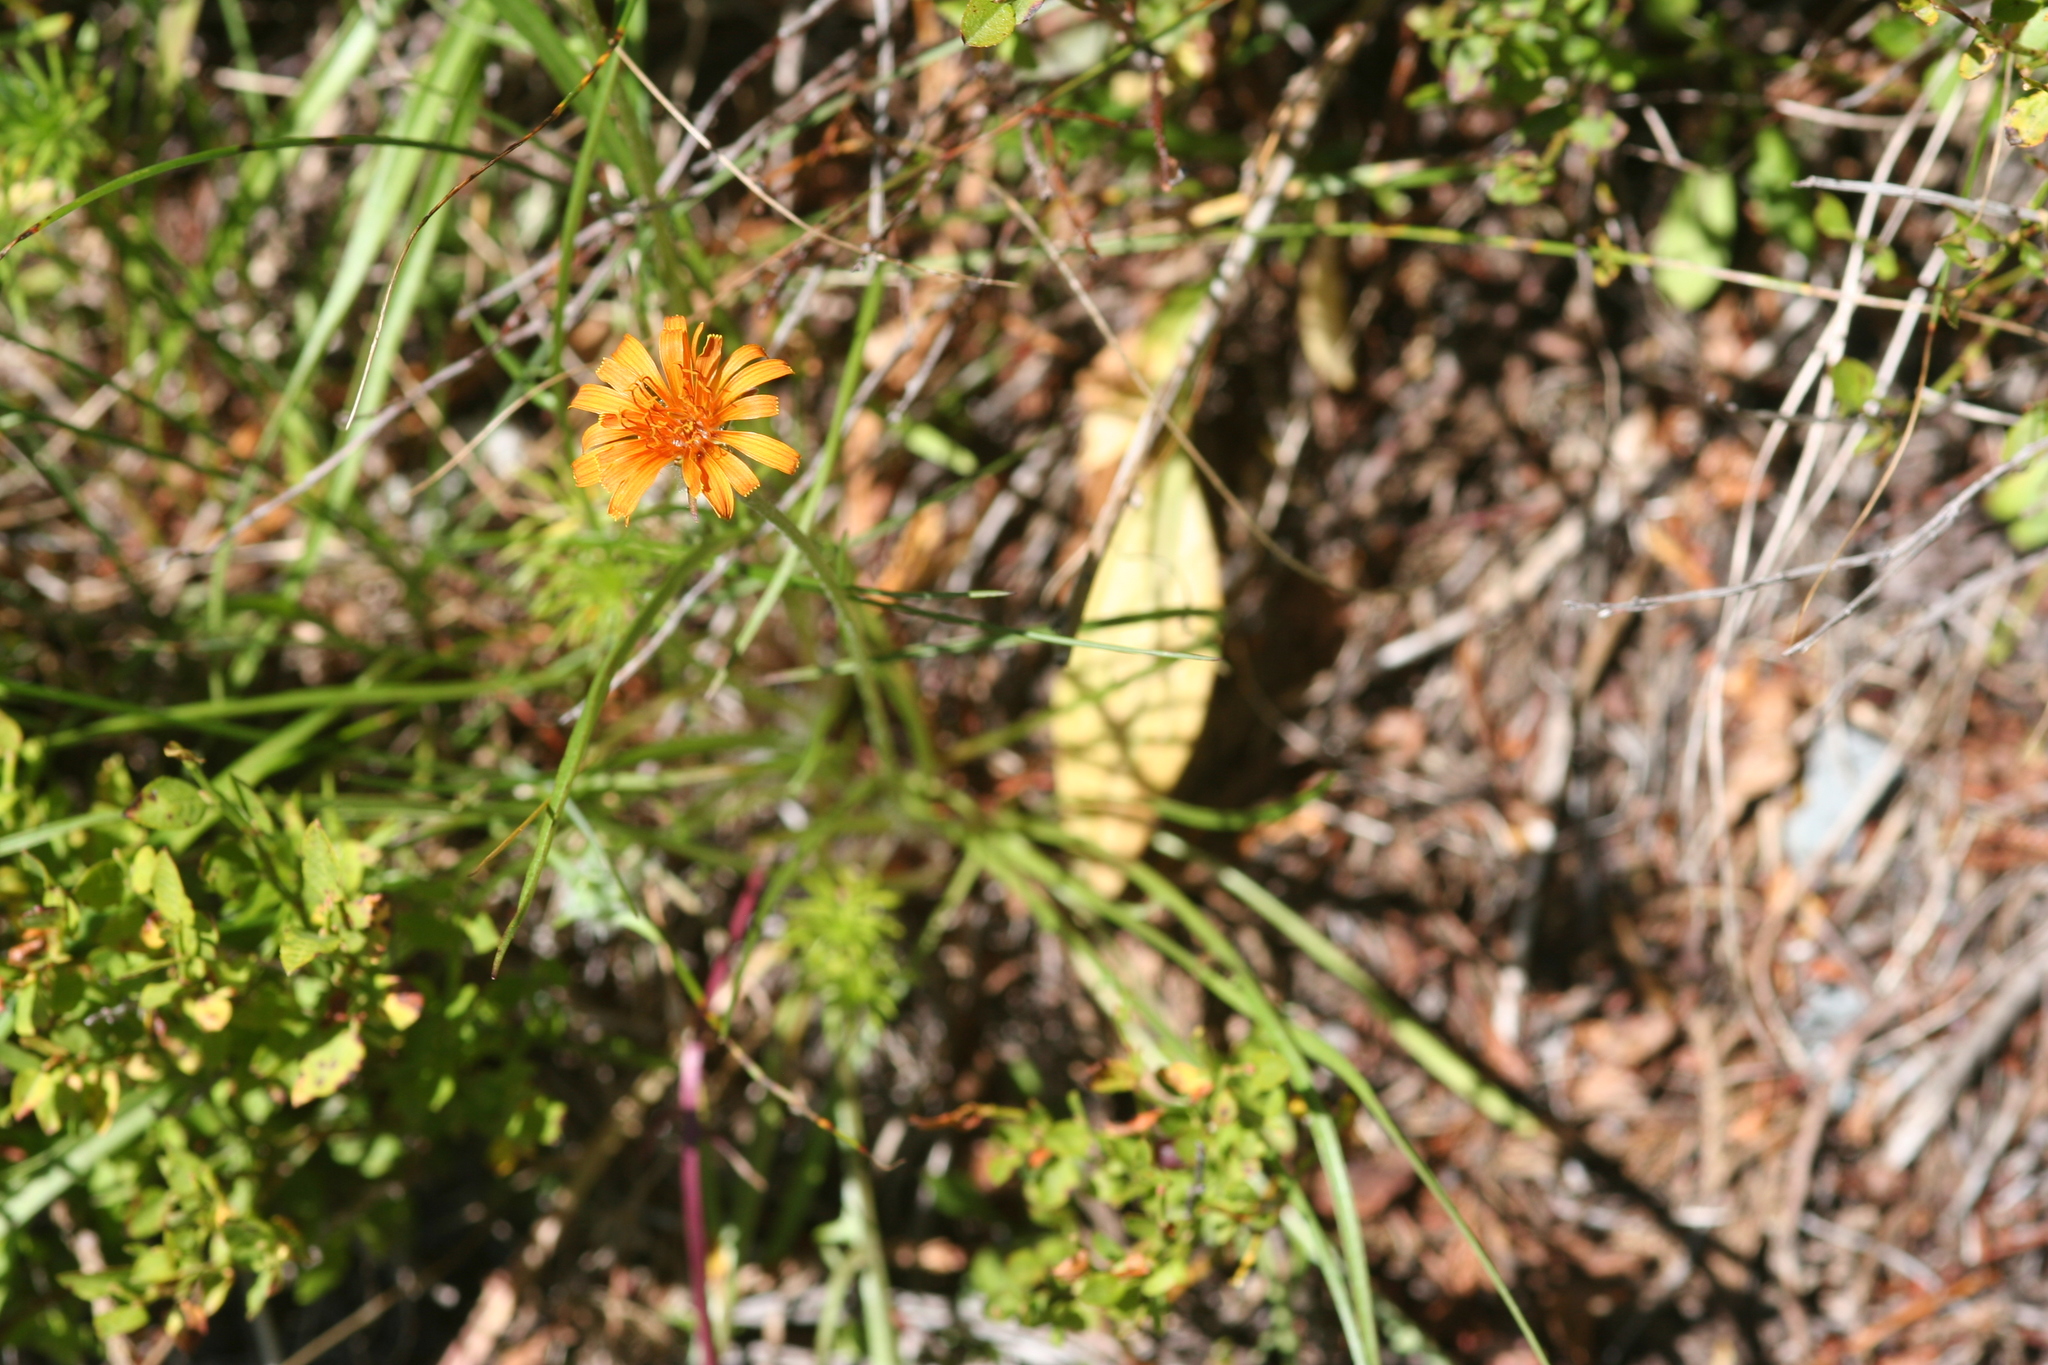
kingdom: Plantae
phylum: Tracheophyta
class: Magnoliopsida
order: Asterales
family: Asteraceae
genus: Agoseris
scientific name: Agoseris aurantiaca
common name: Mountain agoseris
